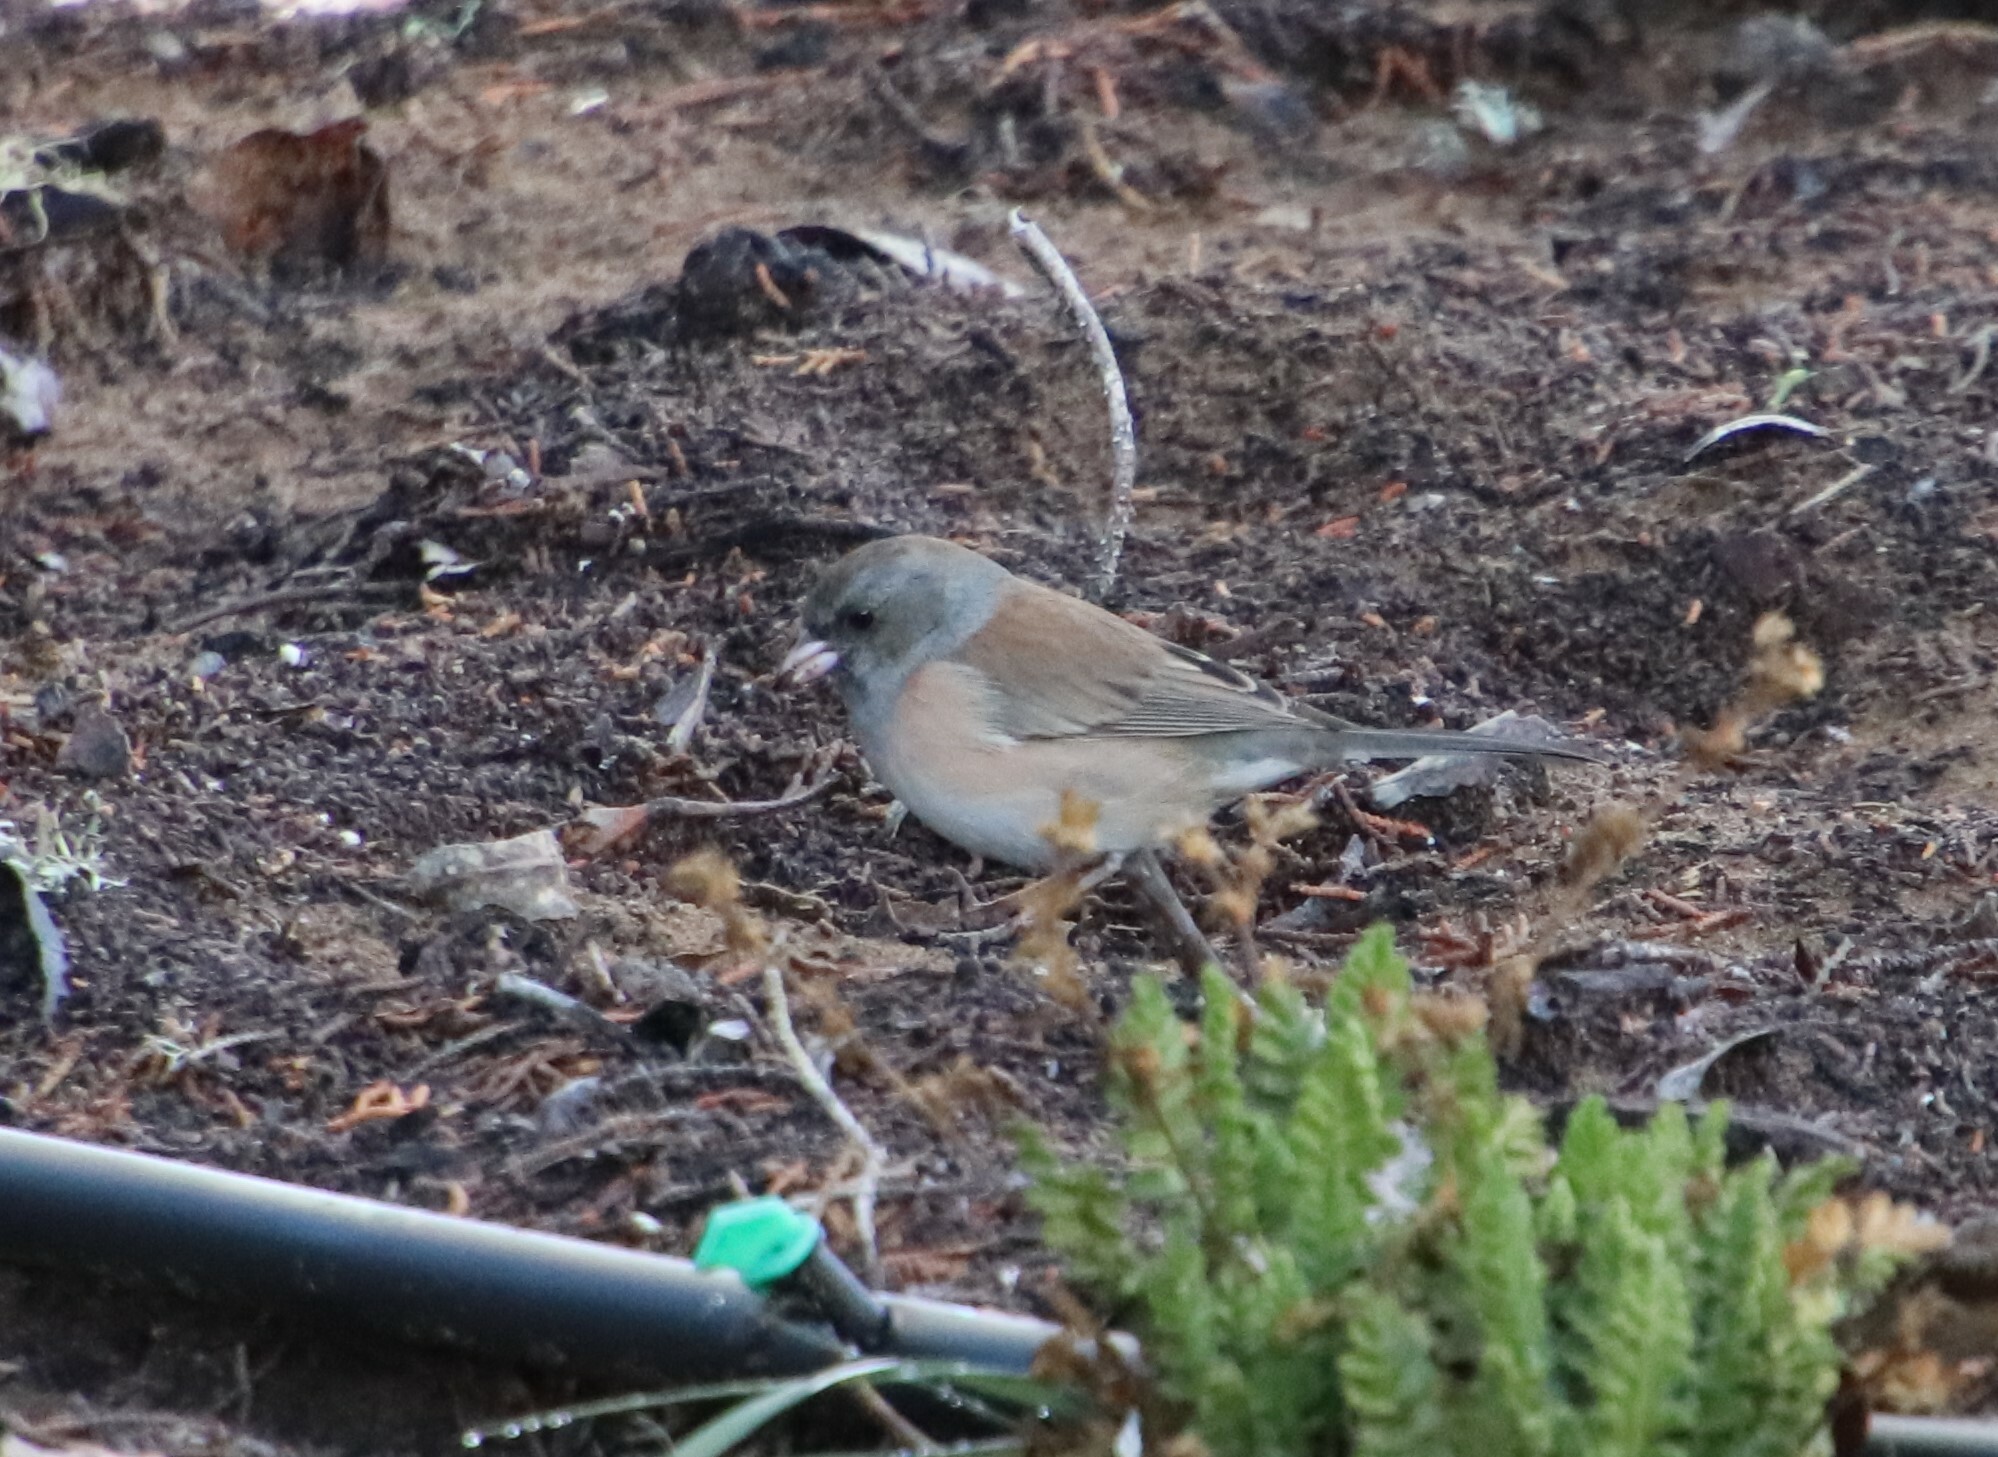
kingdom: Animalia
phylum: Chordata
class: Aves
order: Passeriformes
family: Passerellidae
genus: Junco
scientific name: Junco hyemalis
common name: Dark-eyed junco
